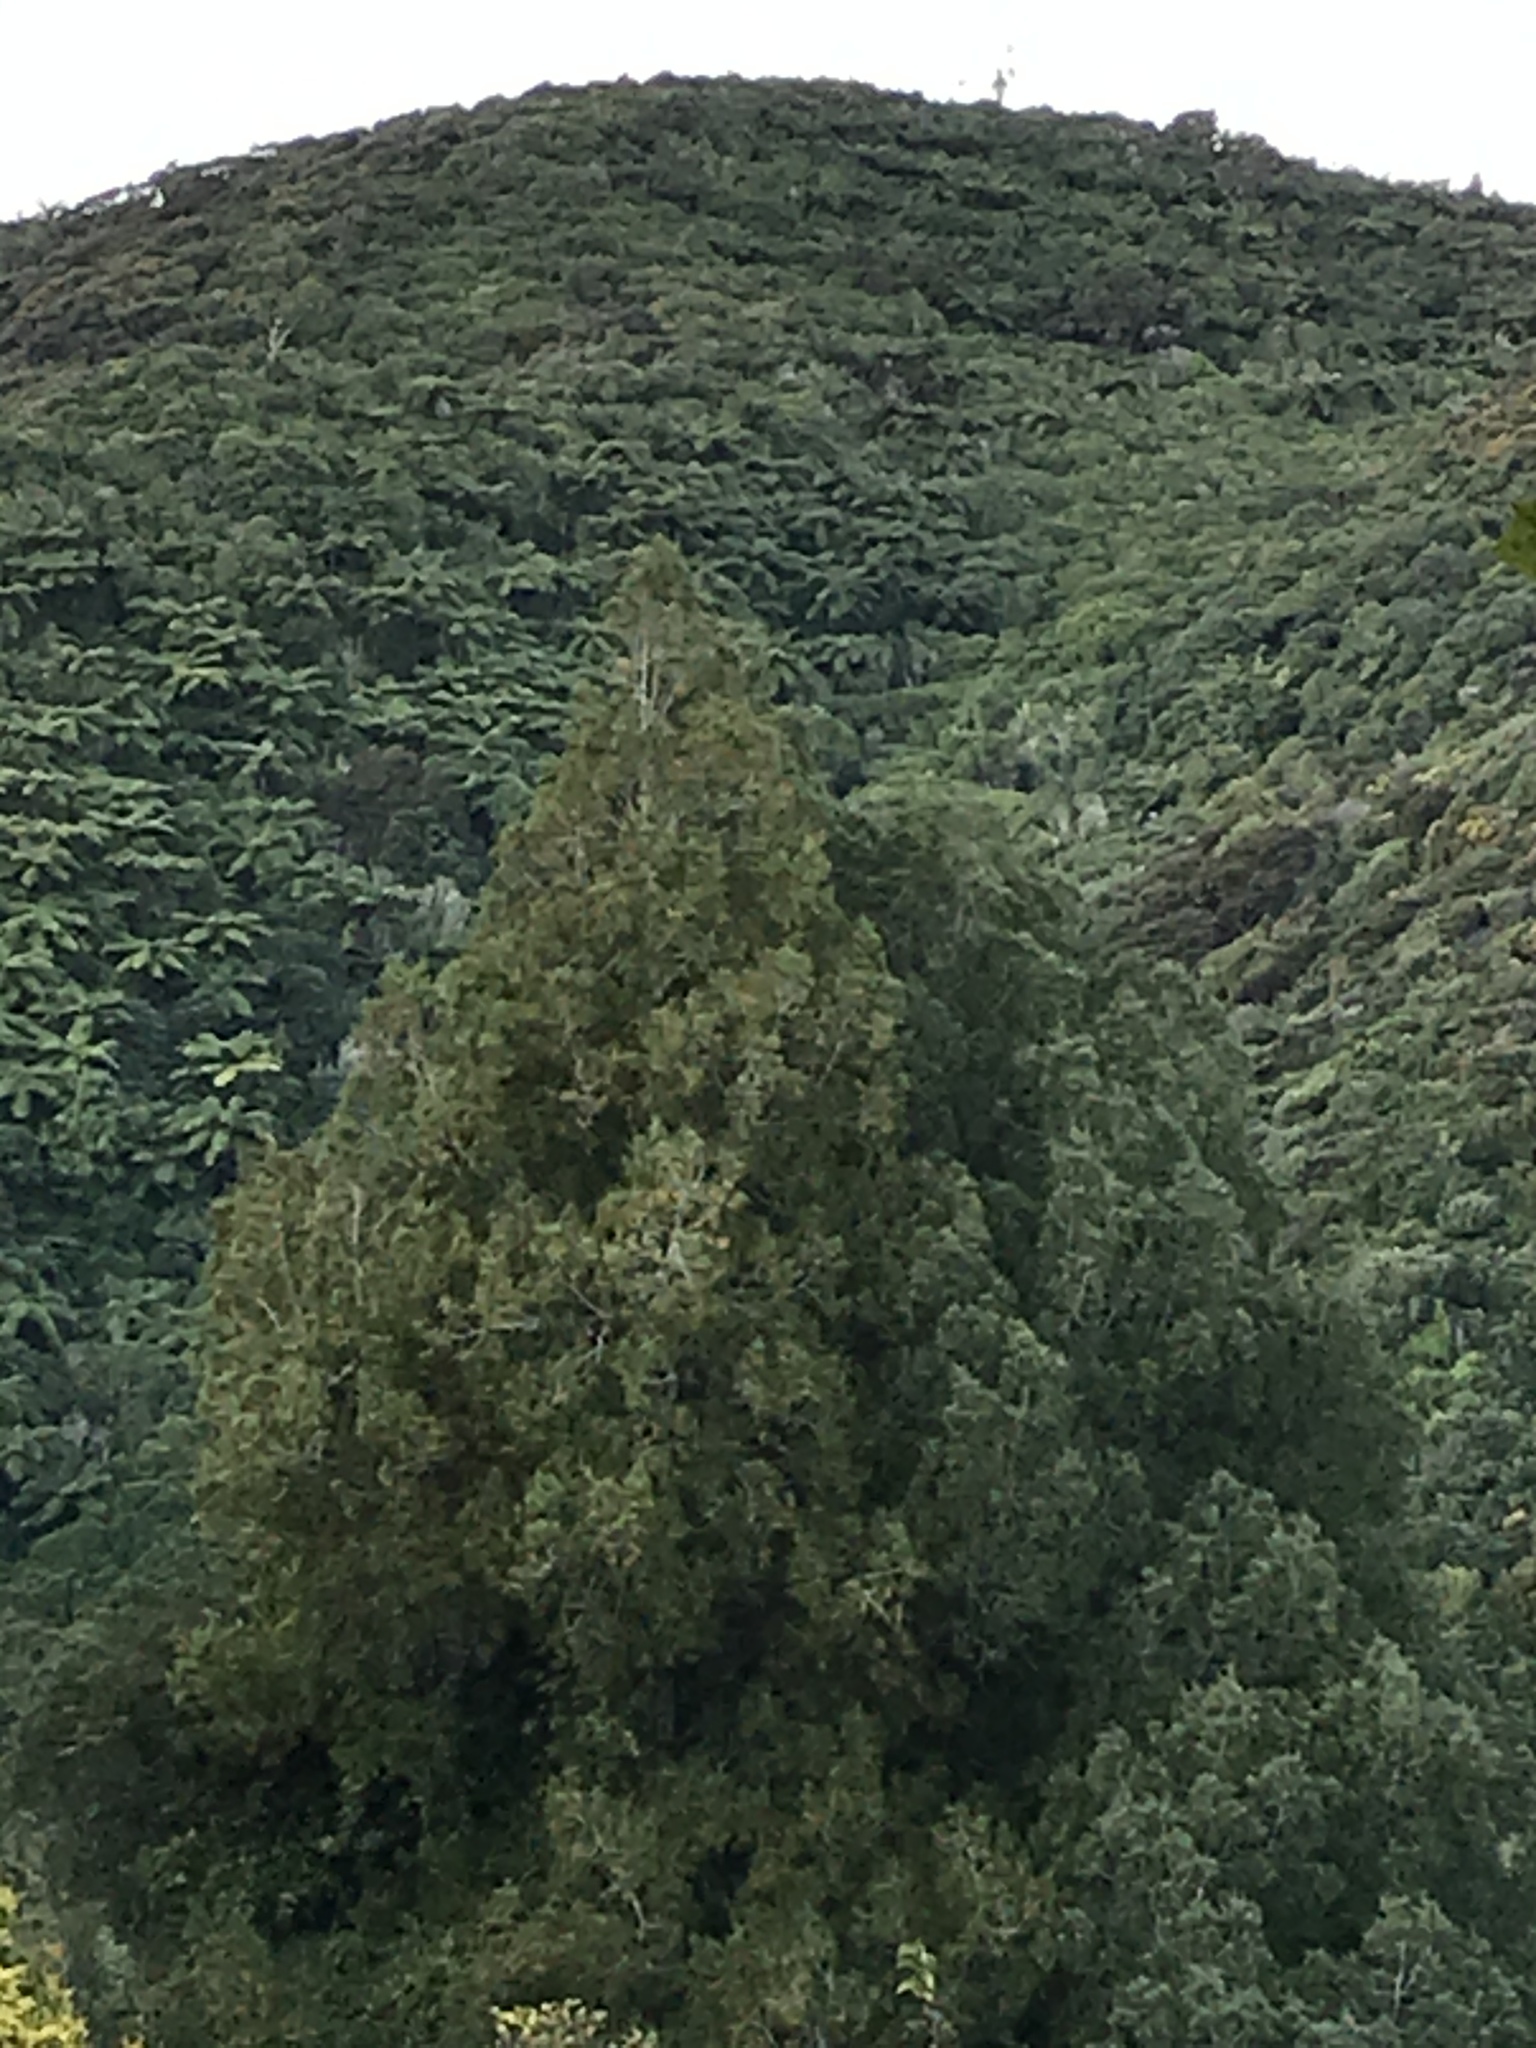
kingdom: Plantae
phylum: Tracheophyta
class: Pinopsida
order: Pinales
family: Podocarpaceae
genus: Dacrycarpus
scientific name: Dacrycarpus dacrydioides
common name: White pine
